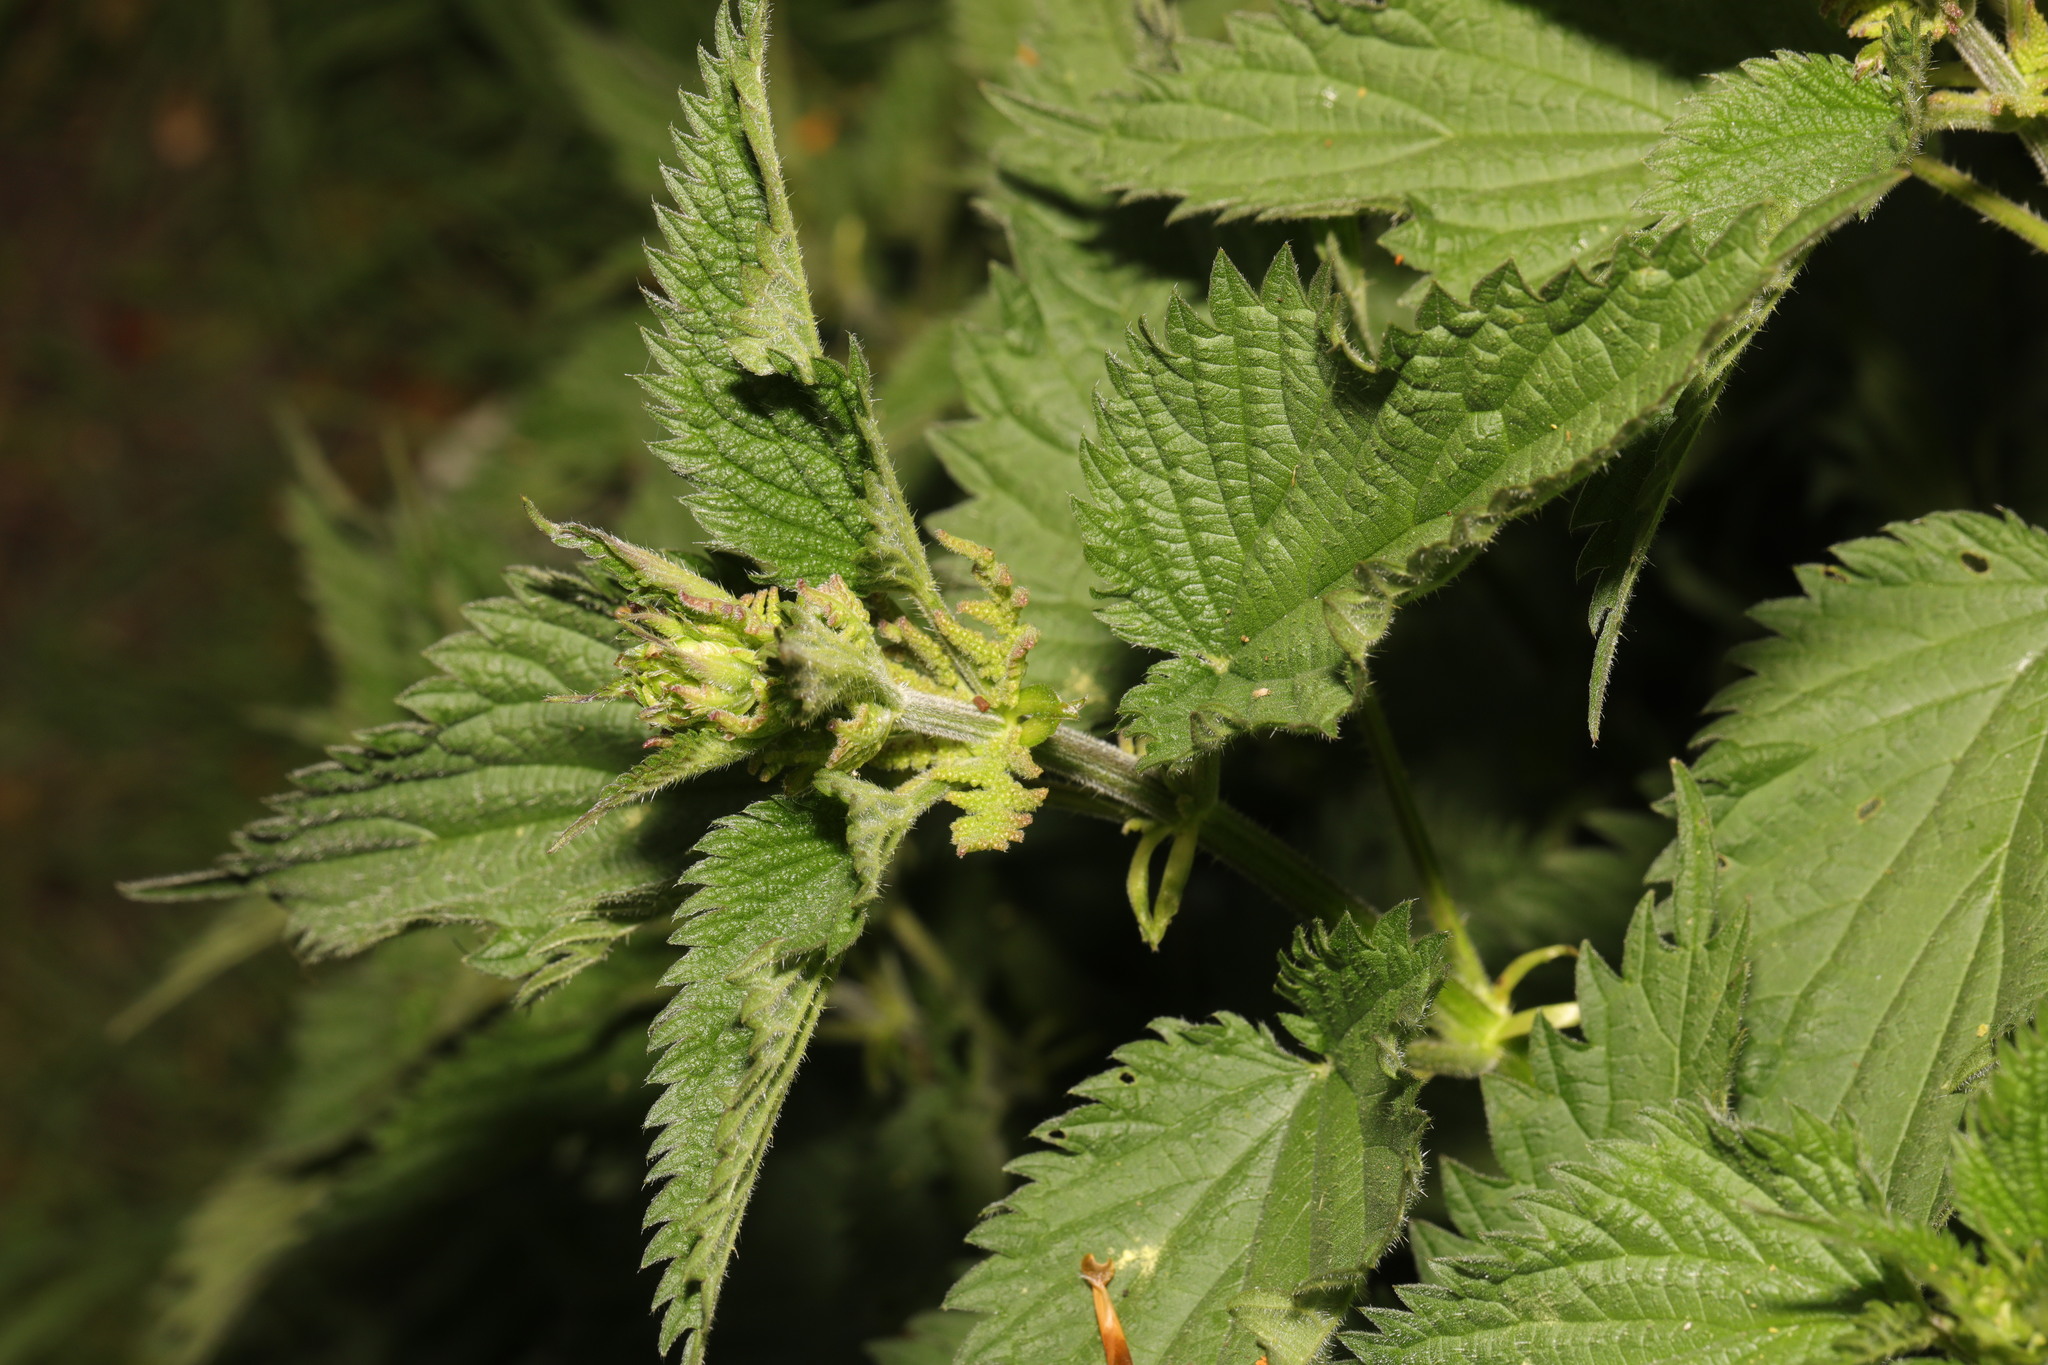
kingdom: Plantae
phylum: Tracheophyta
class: Magnoliopsida
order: Rosales
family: Urticaceae
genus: Urtica
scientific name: Urtica dioica
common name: Common nettle
